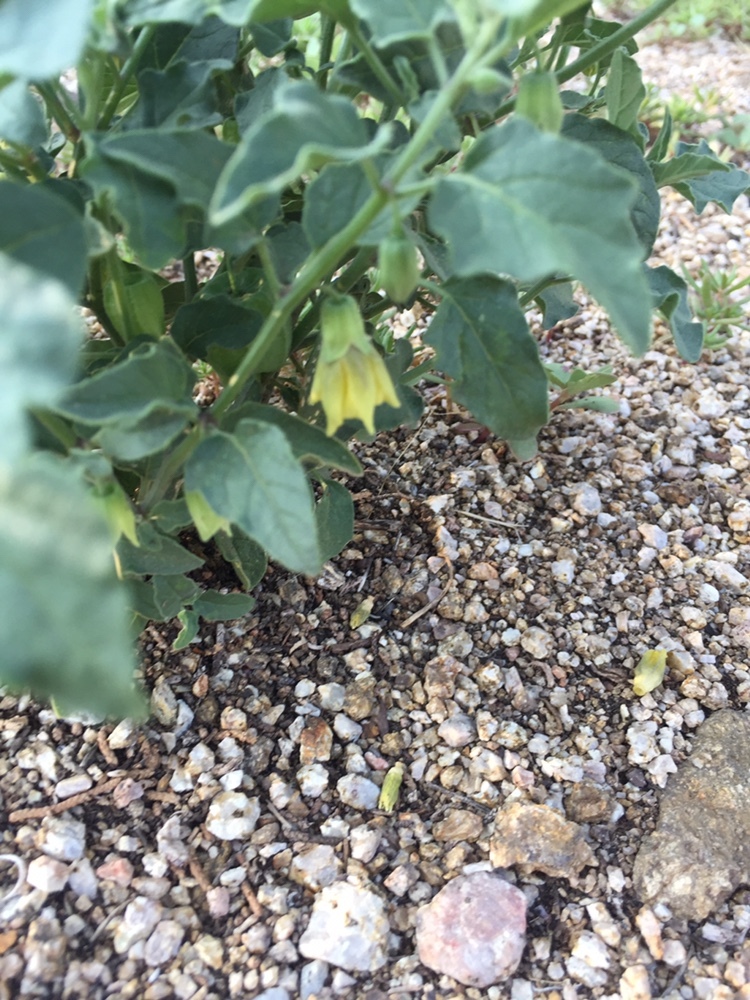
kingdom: Plantae
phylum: Tracheophyta
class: Magnoliopsida
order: Solanales
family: Solanaceae
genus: Physalis
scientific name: Physalis hederifolia
